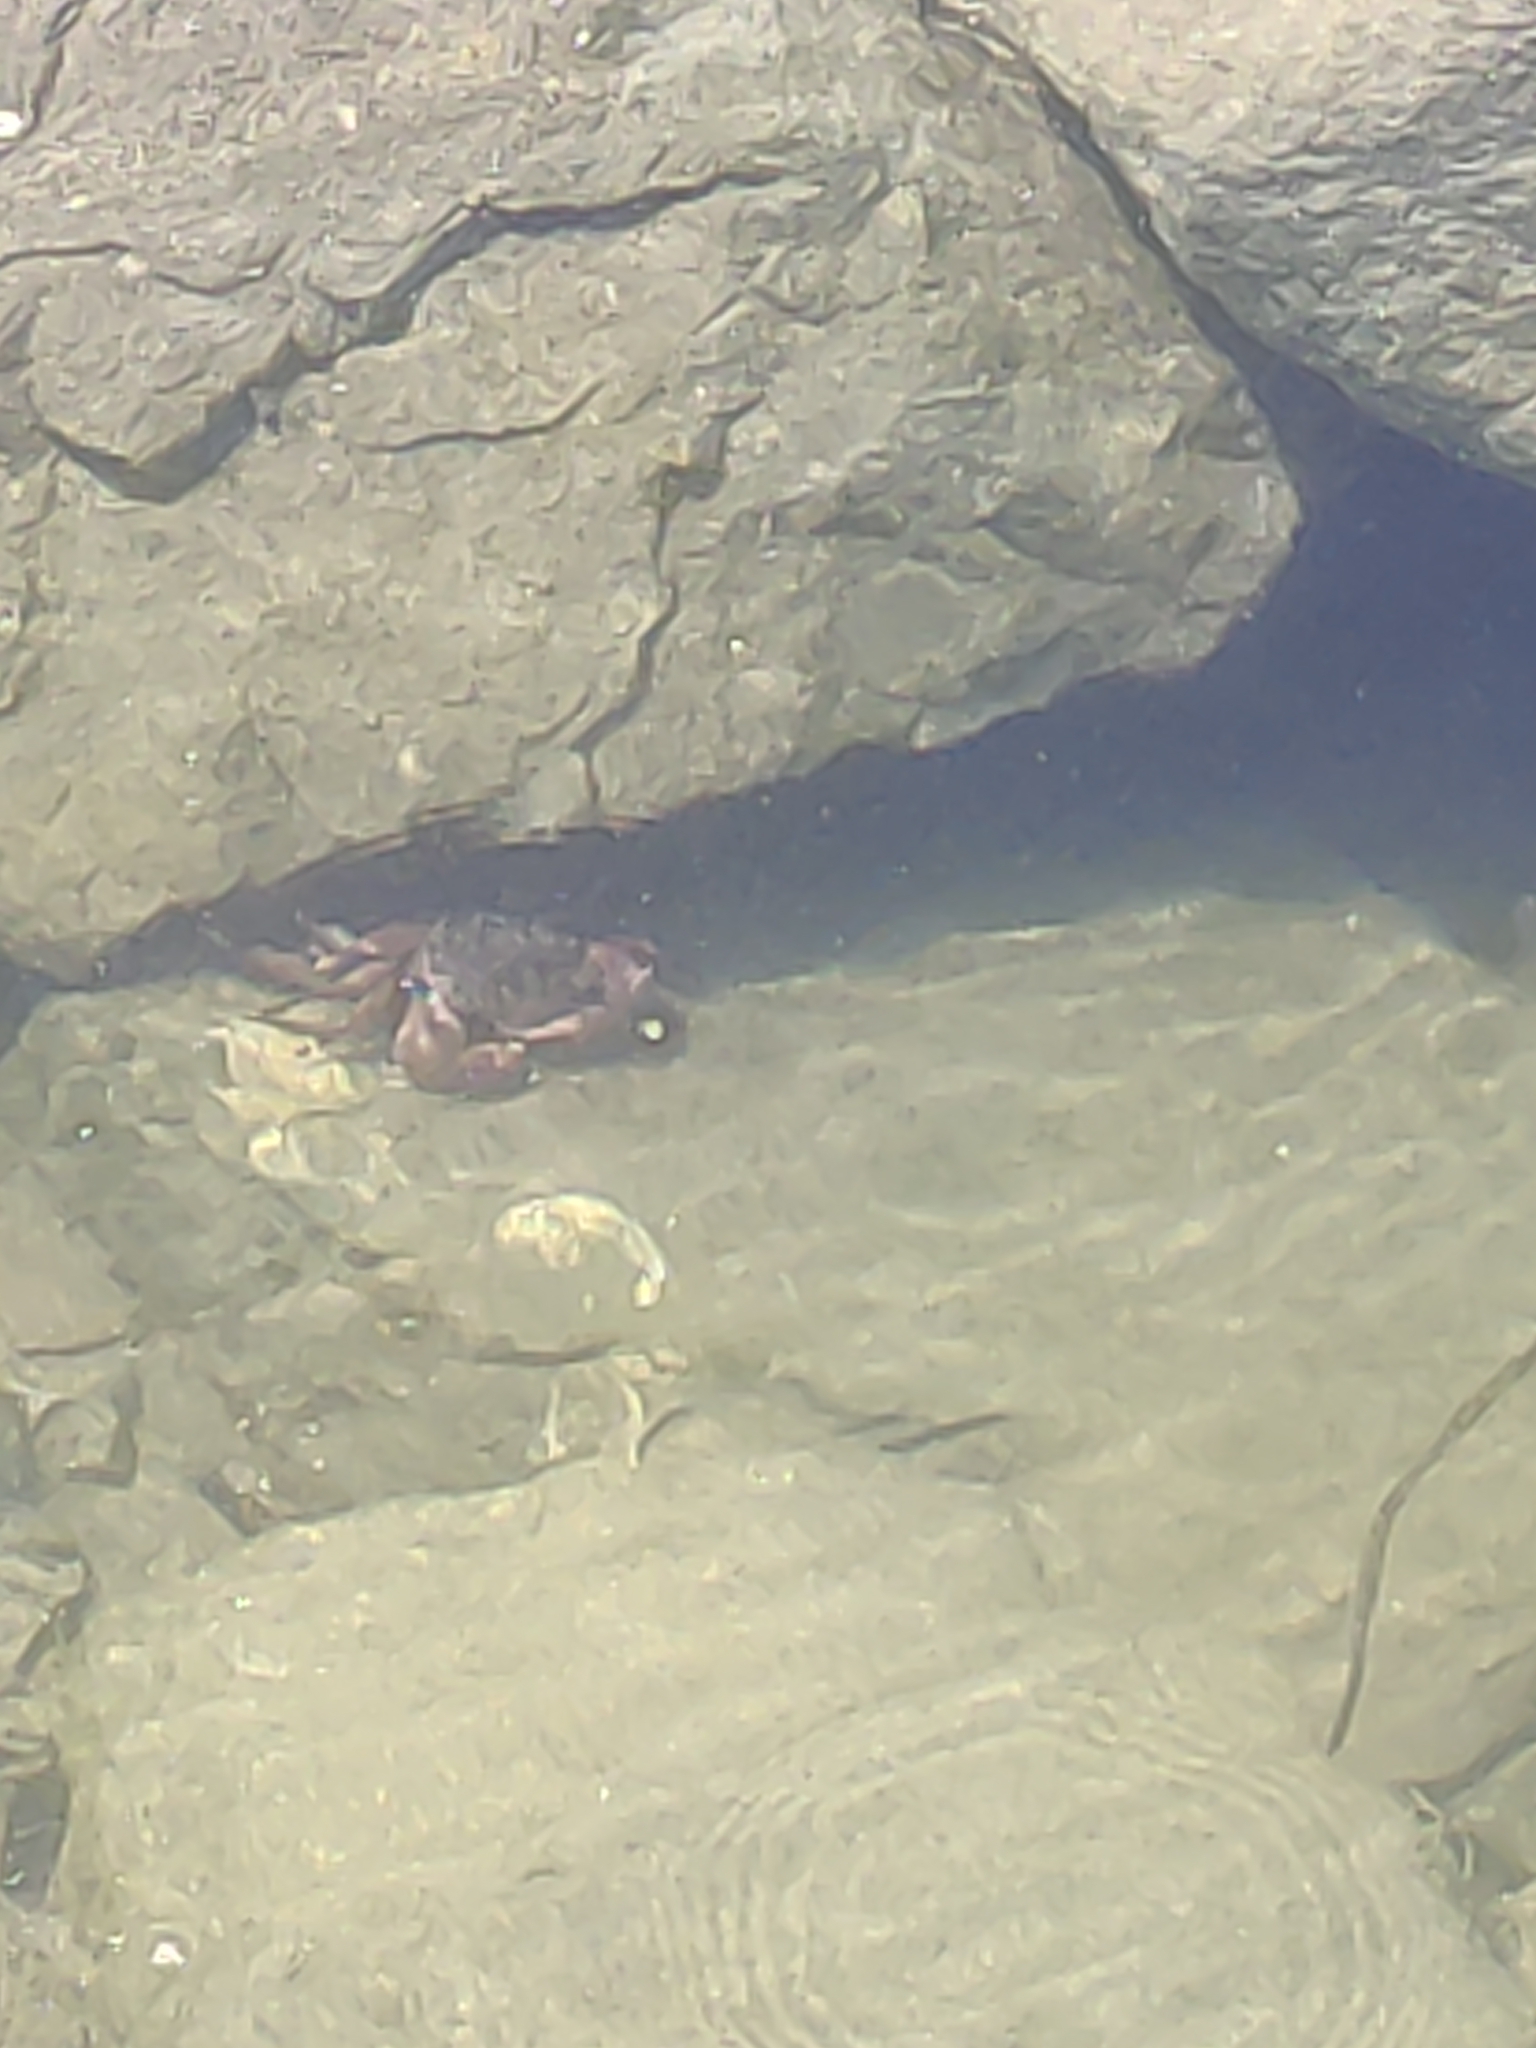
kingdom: Animalia
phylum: Arthropoda
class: Malacostraca
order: Decapoda
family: Grapsidae
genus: Pachygrapsus
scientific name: Pachygrapsus crassipes
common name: Striped shore crab
